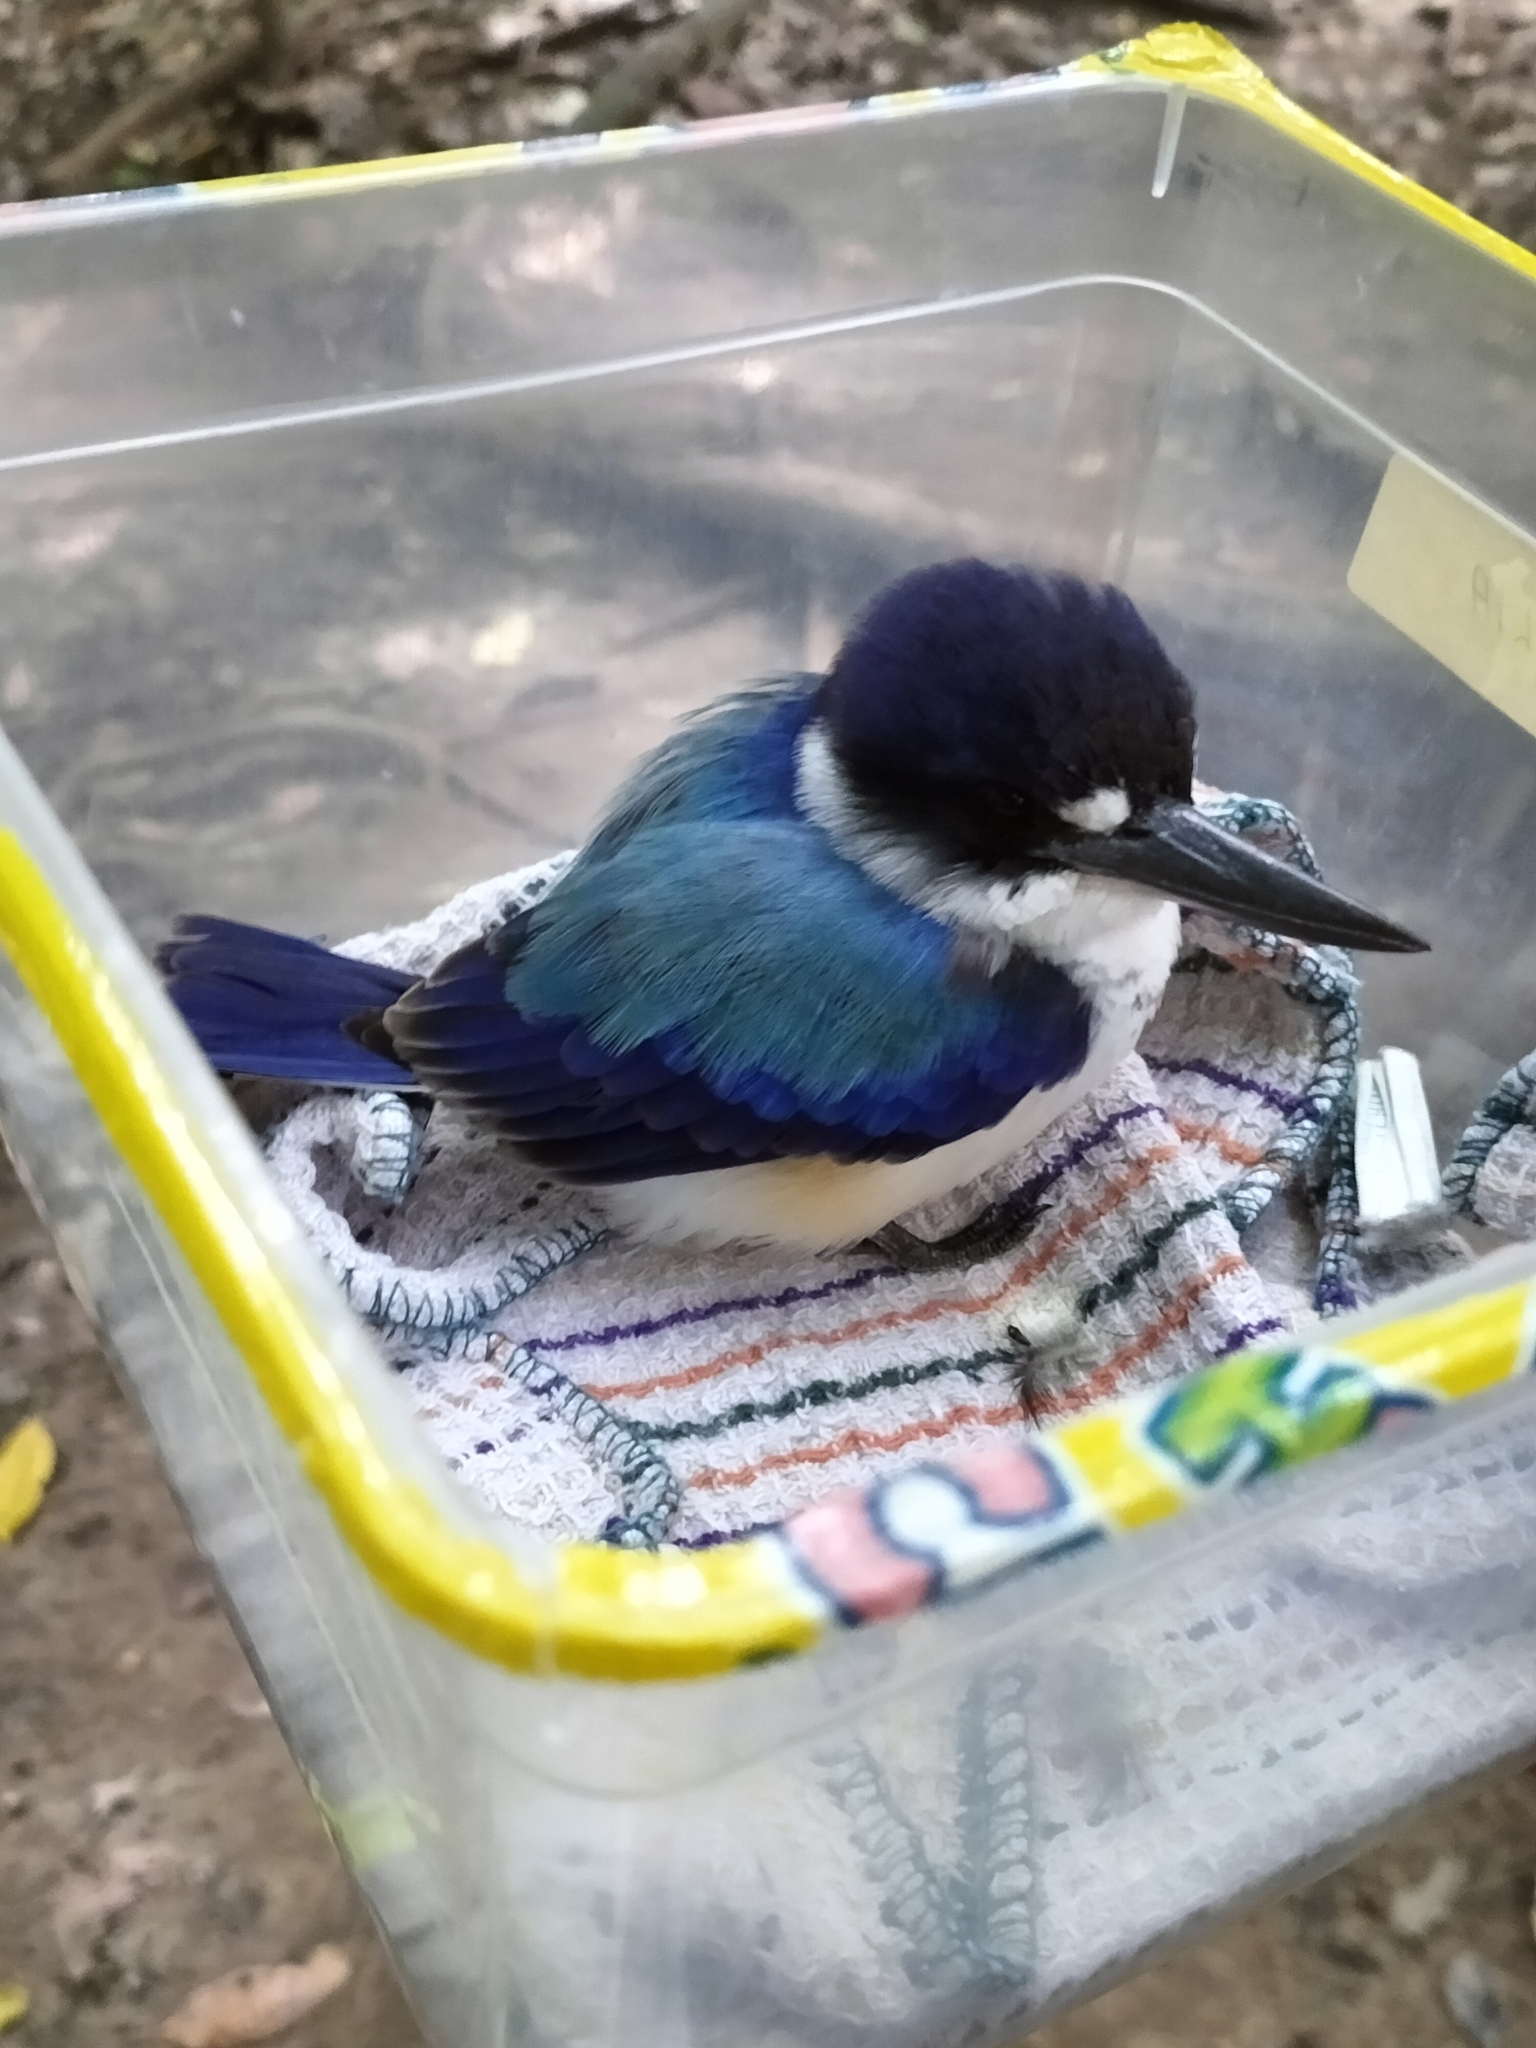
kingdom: Animalia
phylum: Chordata
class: Aves
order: Coraciiformes
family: Alcedinidae
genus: Todiramphus
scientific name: Todiramphus macleayii
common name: Forest kingfisher
